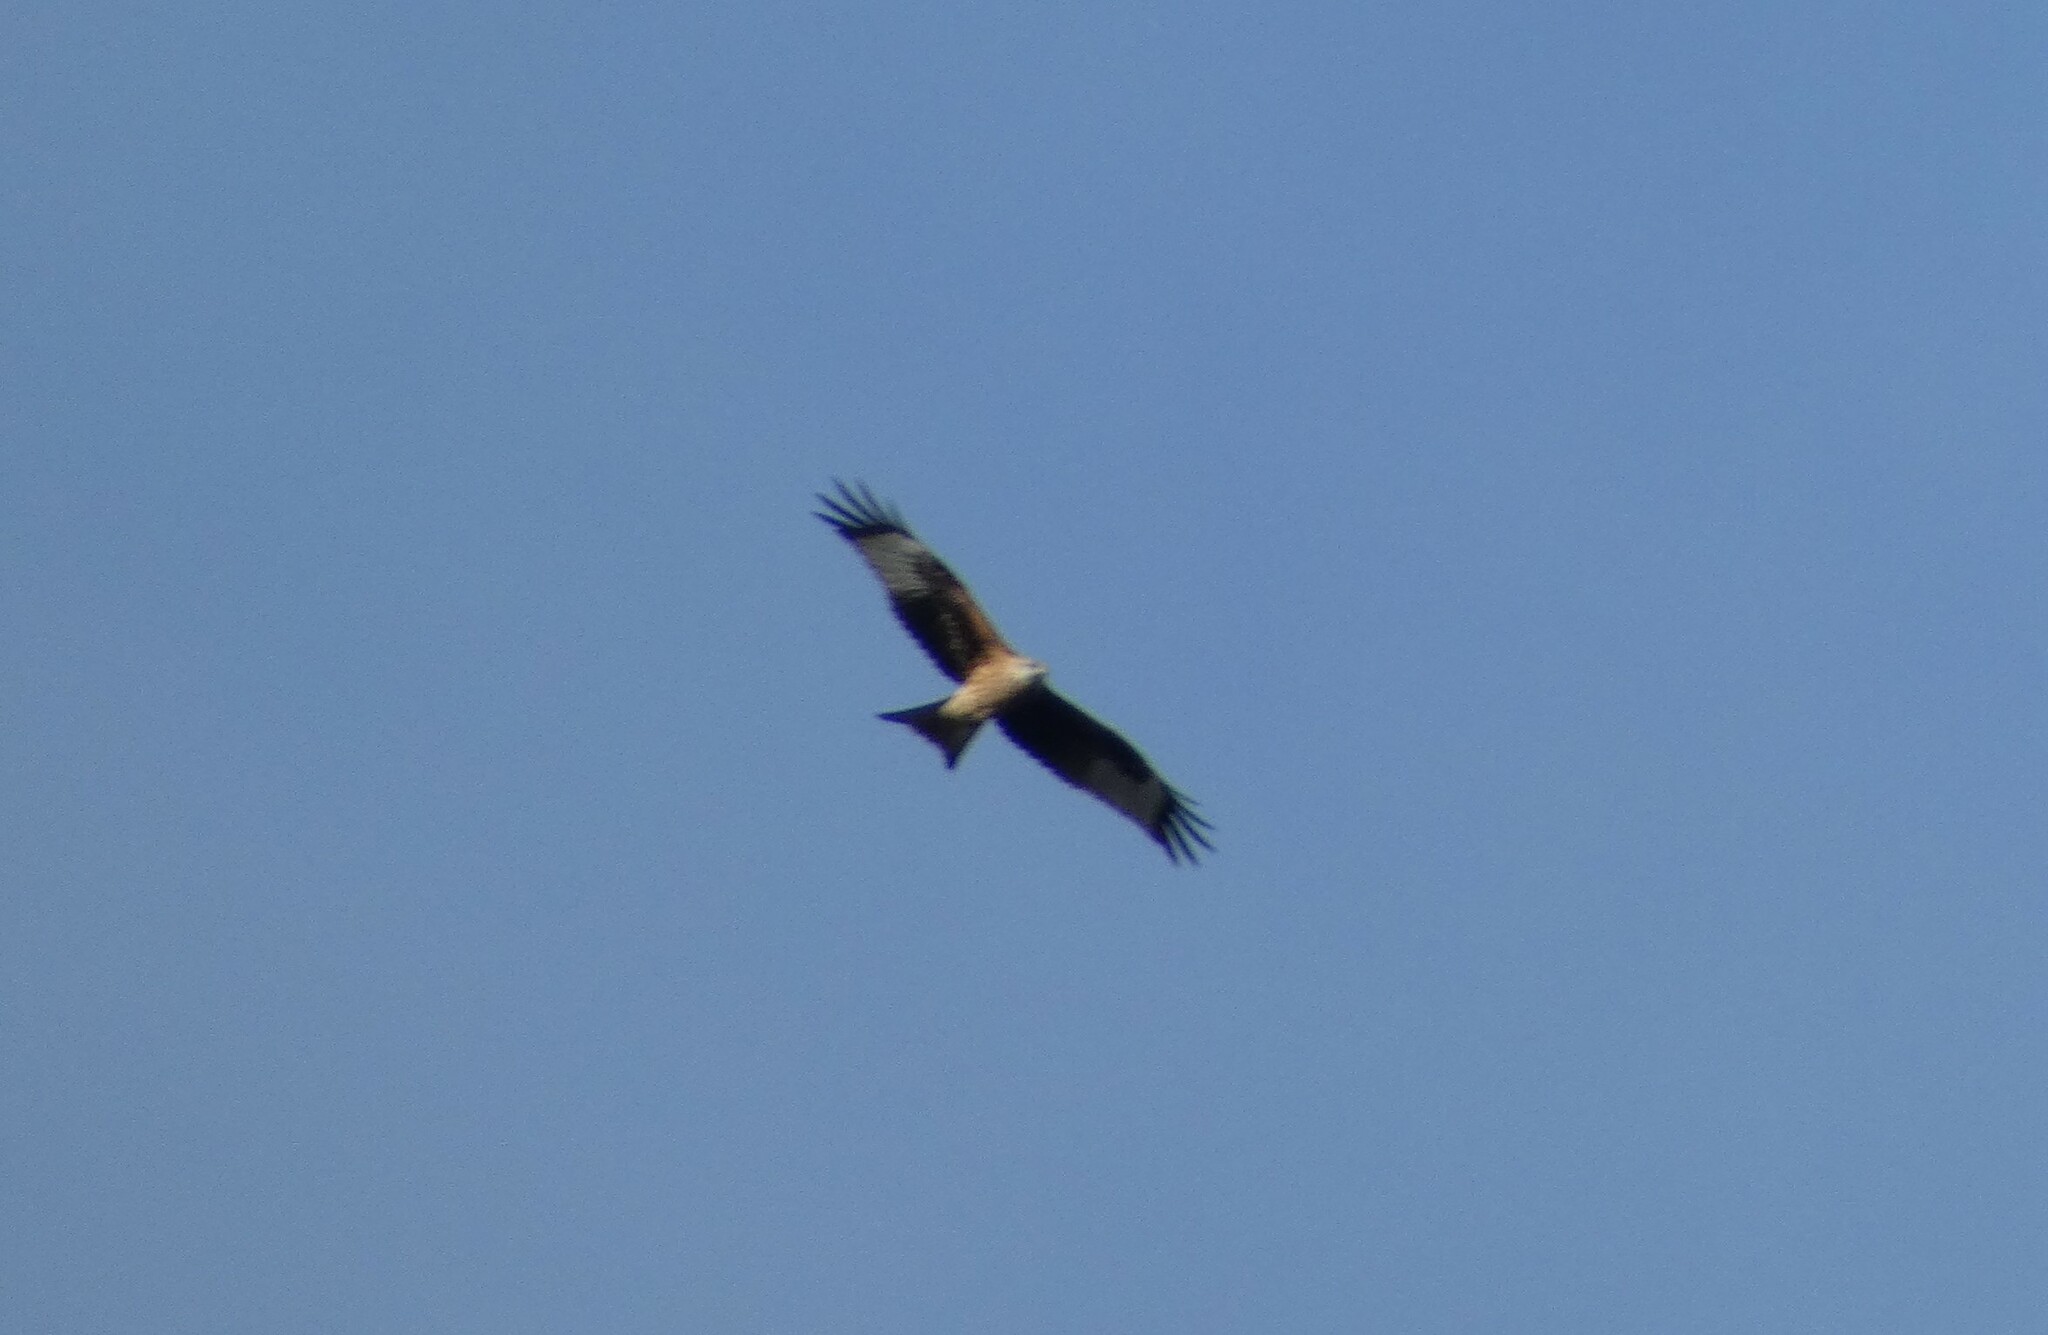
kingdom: Animalia
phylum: Chordata
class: Aves
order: Accipitriformes
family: Accipitridae
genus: Milvus
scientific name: Milvus milvus
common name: Red kite
